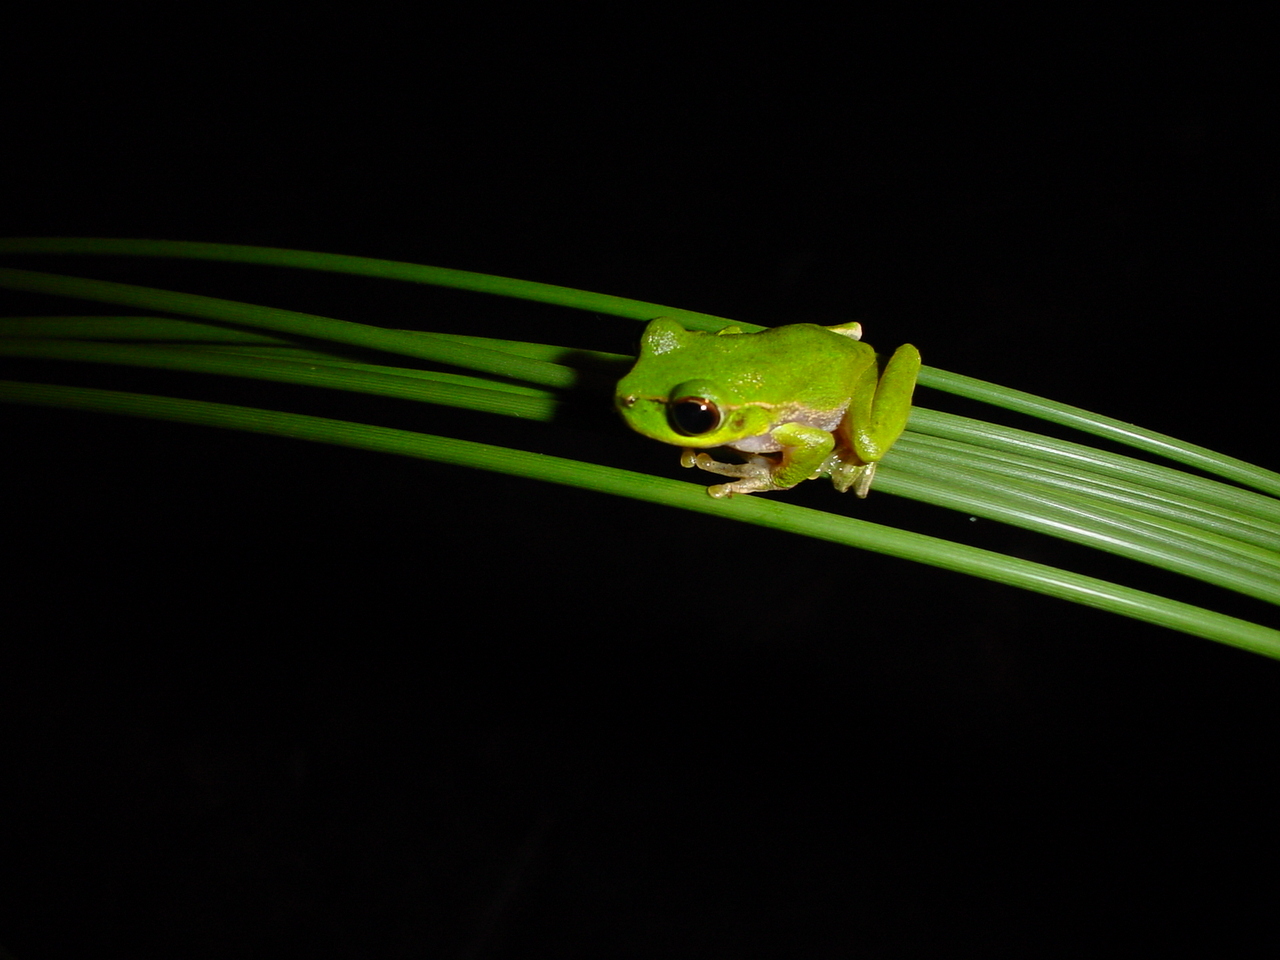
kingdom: Animalia
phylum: Chordata
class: Amphibia
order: Anura
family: Pelodryadidae
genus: Ranoidea
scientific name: Ranoidea pearsoniana
